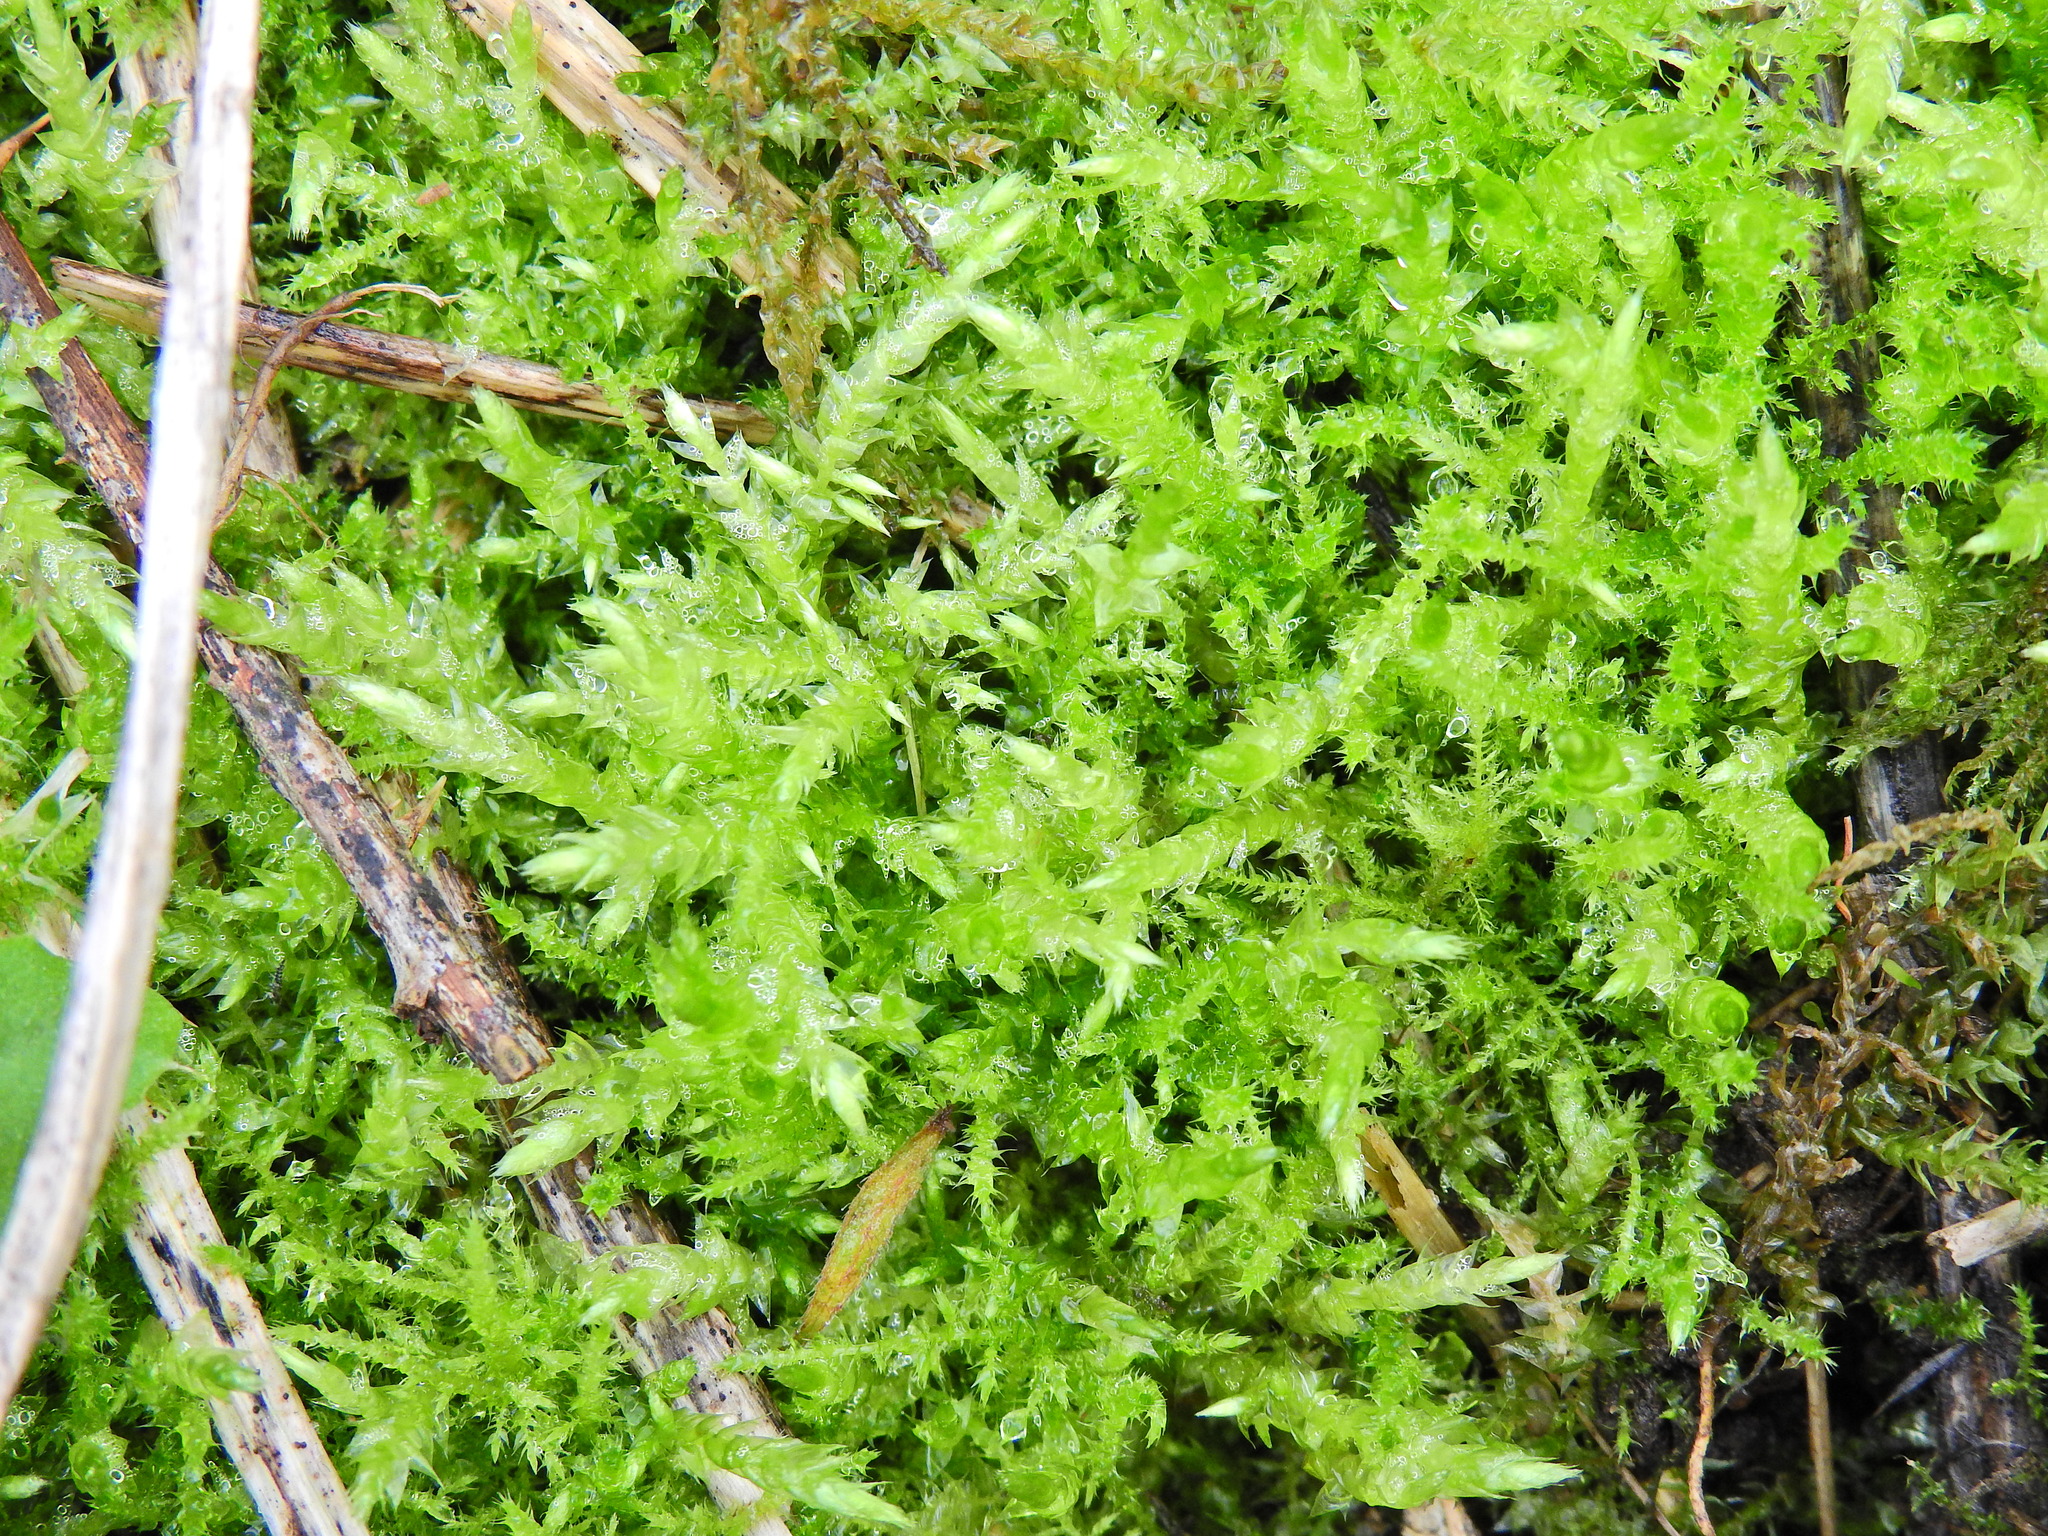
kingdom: Plantae
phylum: Bryophyta
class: Bryopsida
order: Hypnales
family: Pylaisiaceae
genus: Calliergonella
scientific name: Calliergonella cuspidata
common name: Common large wetland moss
